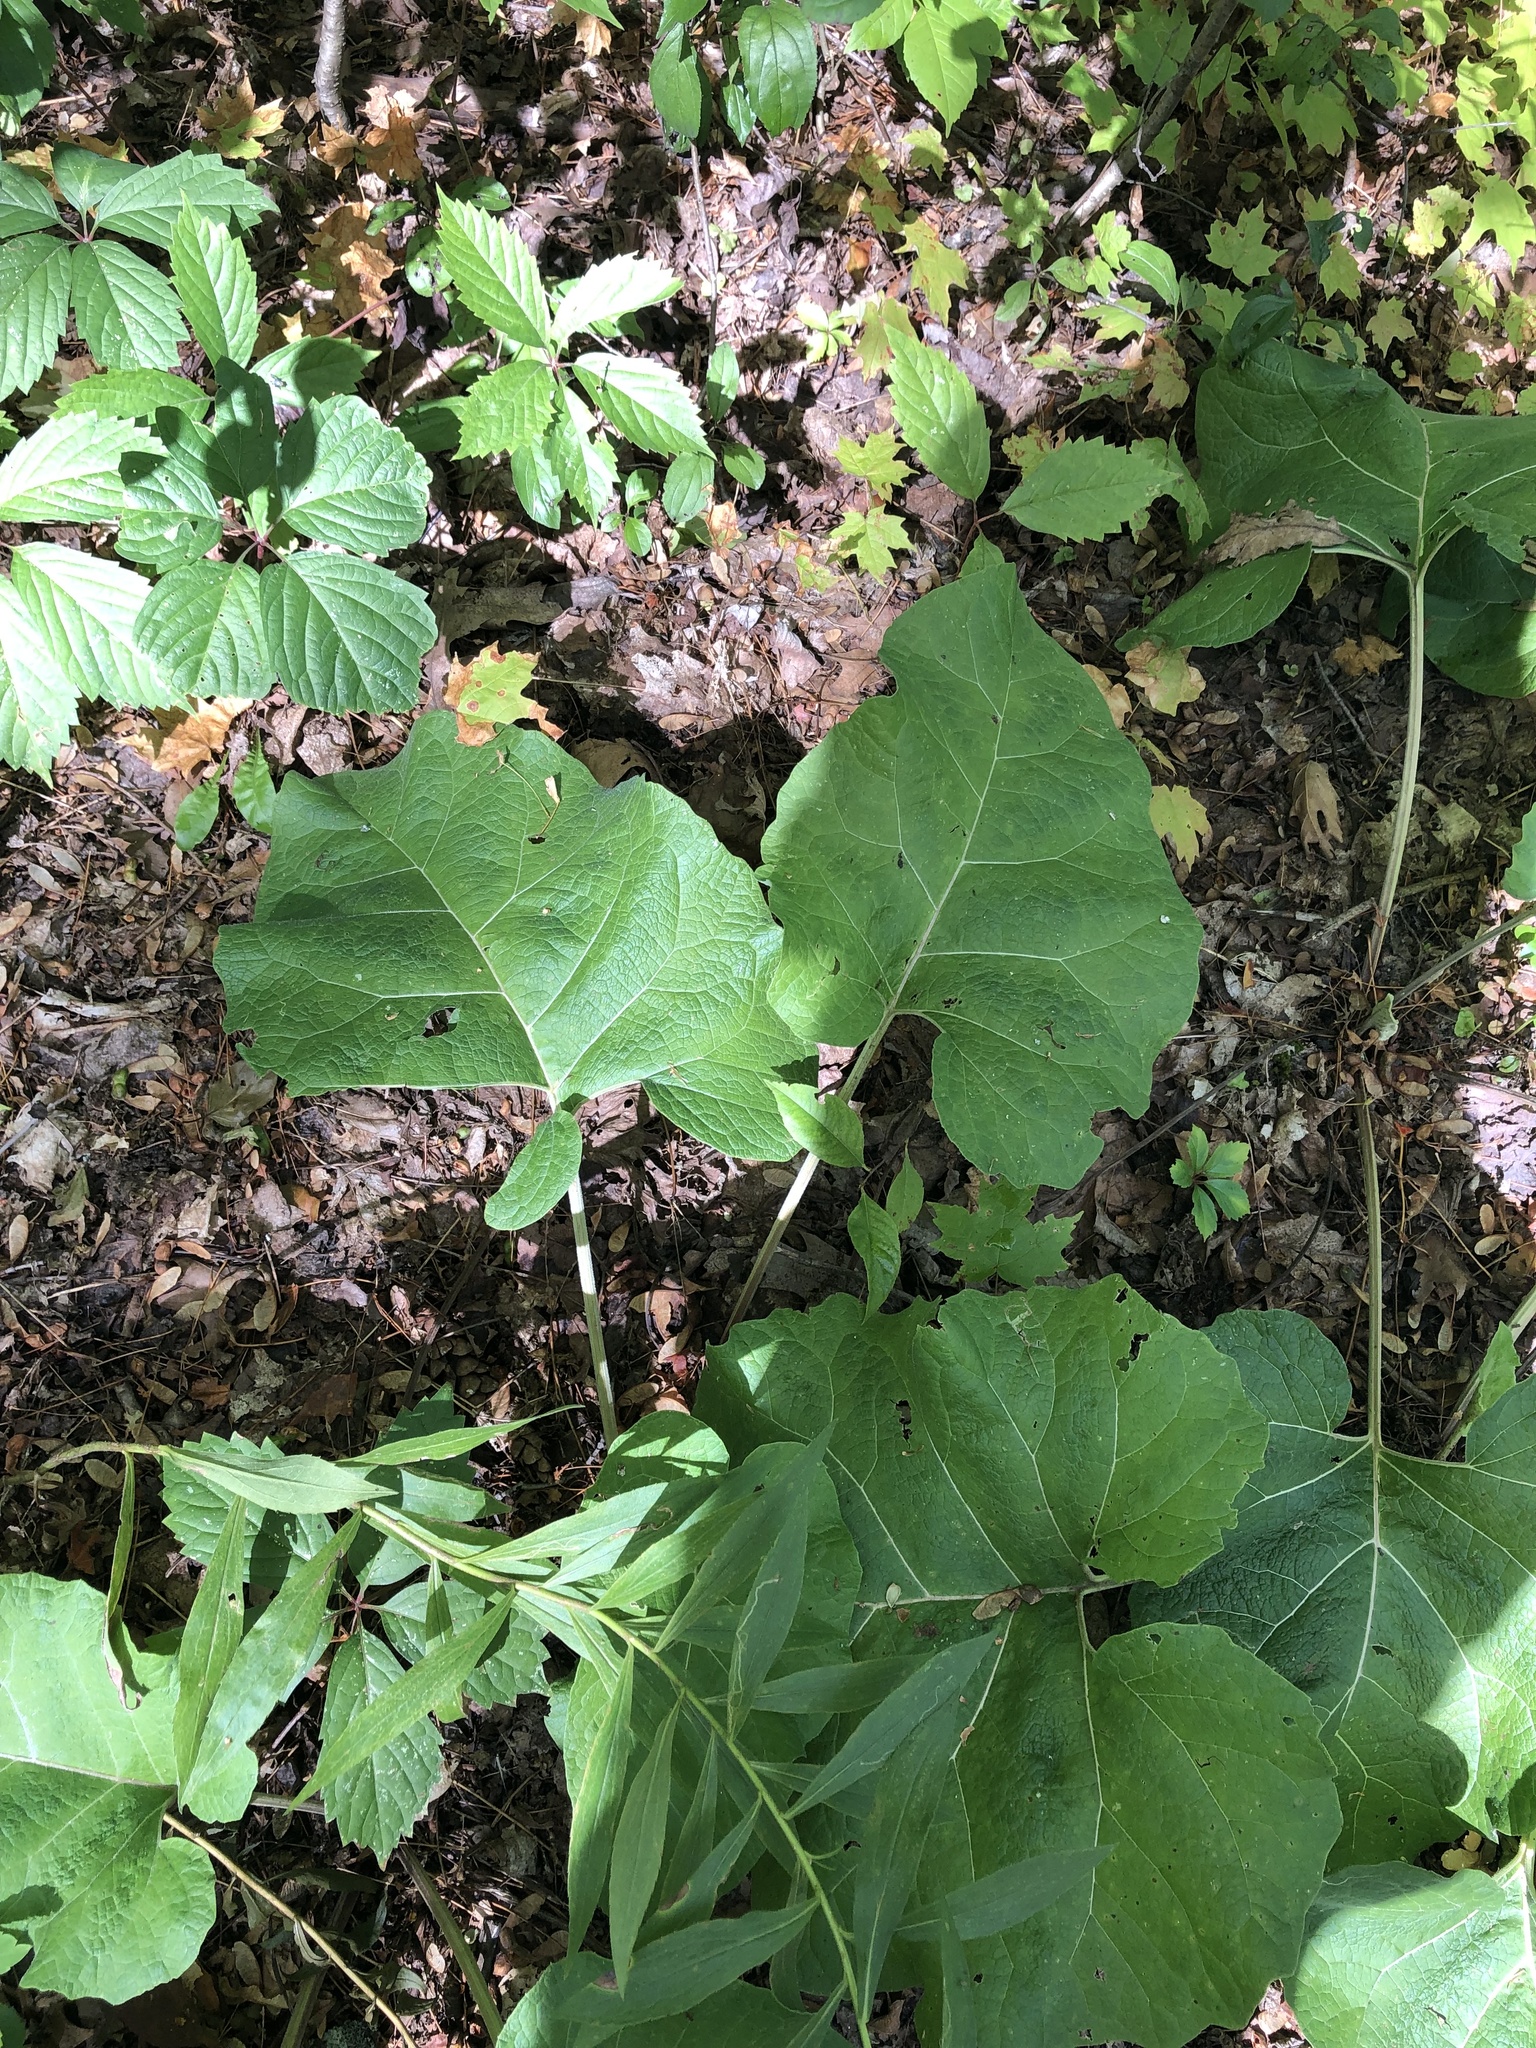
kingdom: Plantae
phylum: Tracheophyta
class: Magnoliopsida
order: Asterales
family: Asteraceae
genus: Arctium
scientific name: Arctium
